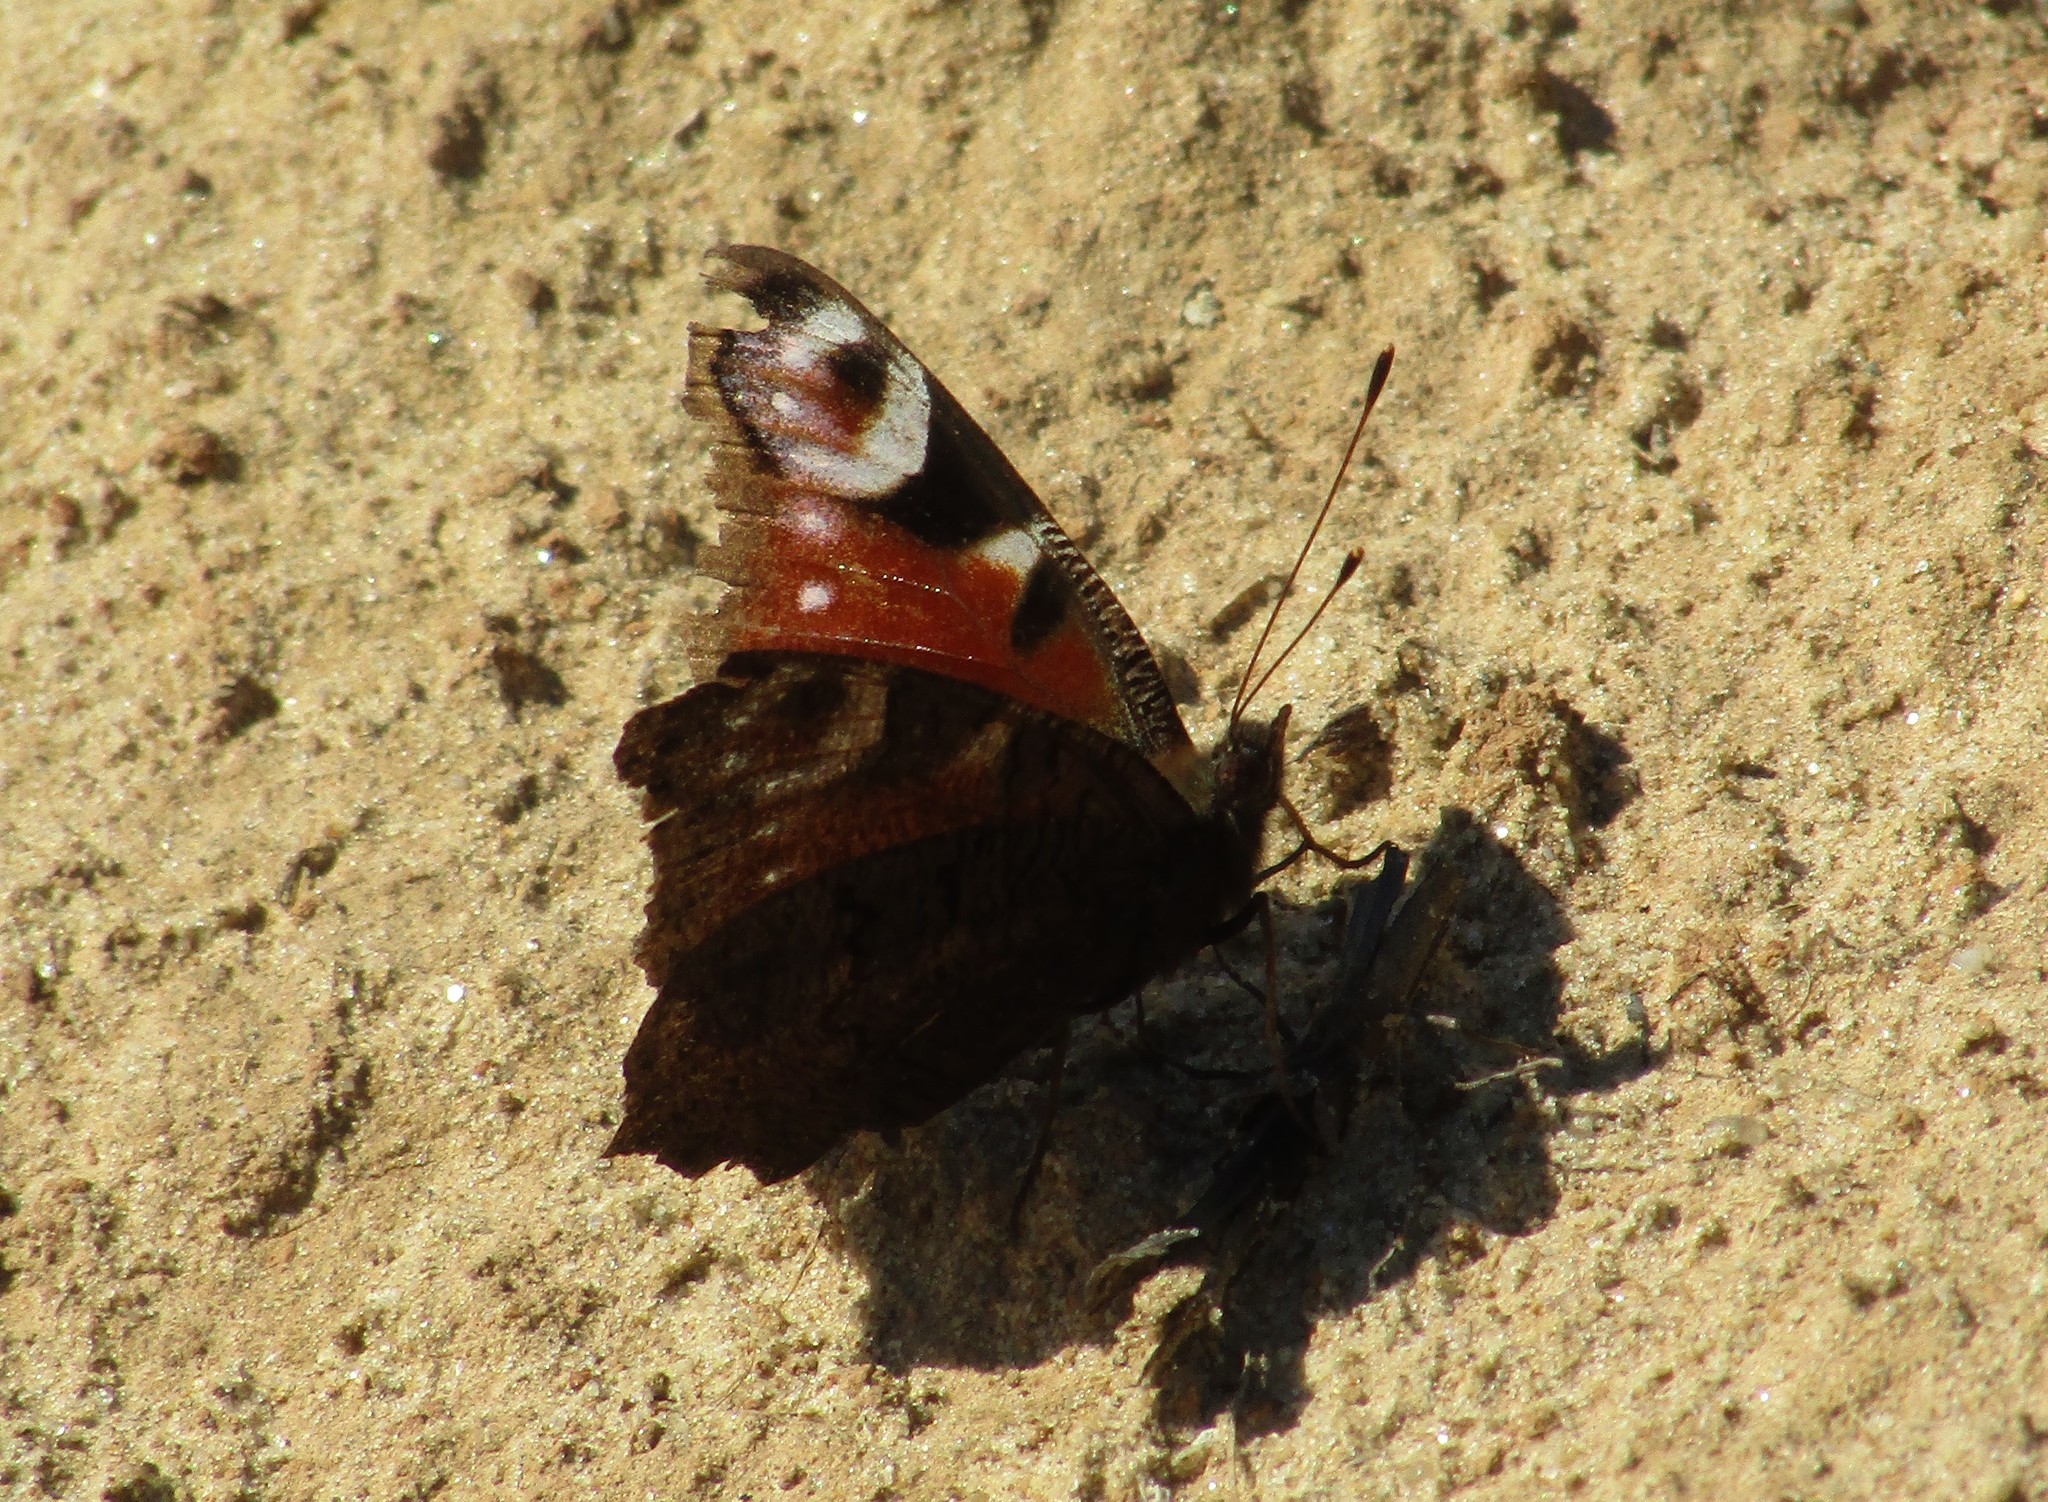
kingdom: Animalia
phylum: Arthropoda
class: Insecta
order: Lepidoptera
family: Nymphalidae
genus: Aglais
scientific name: Aglais io
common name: Peacock
